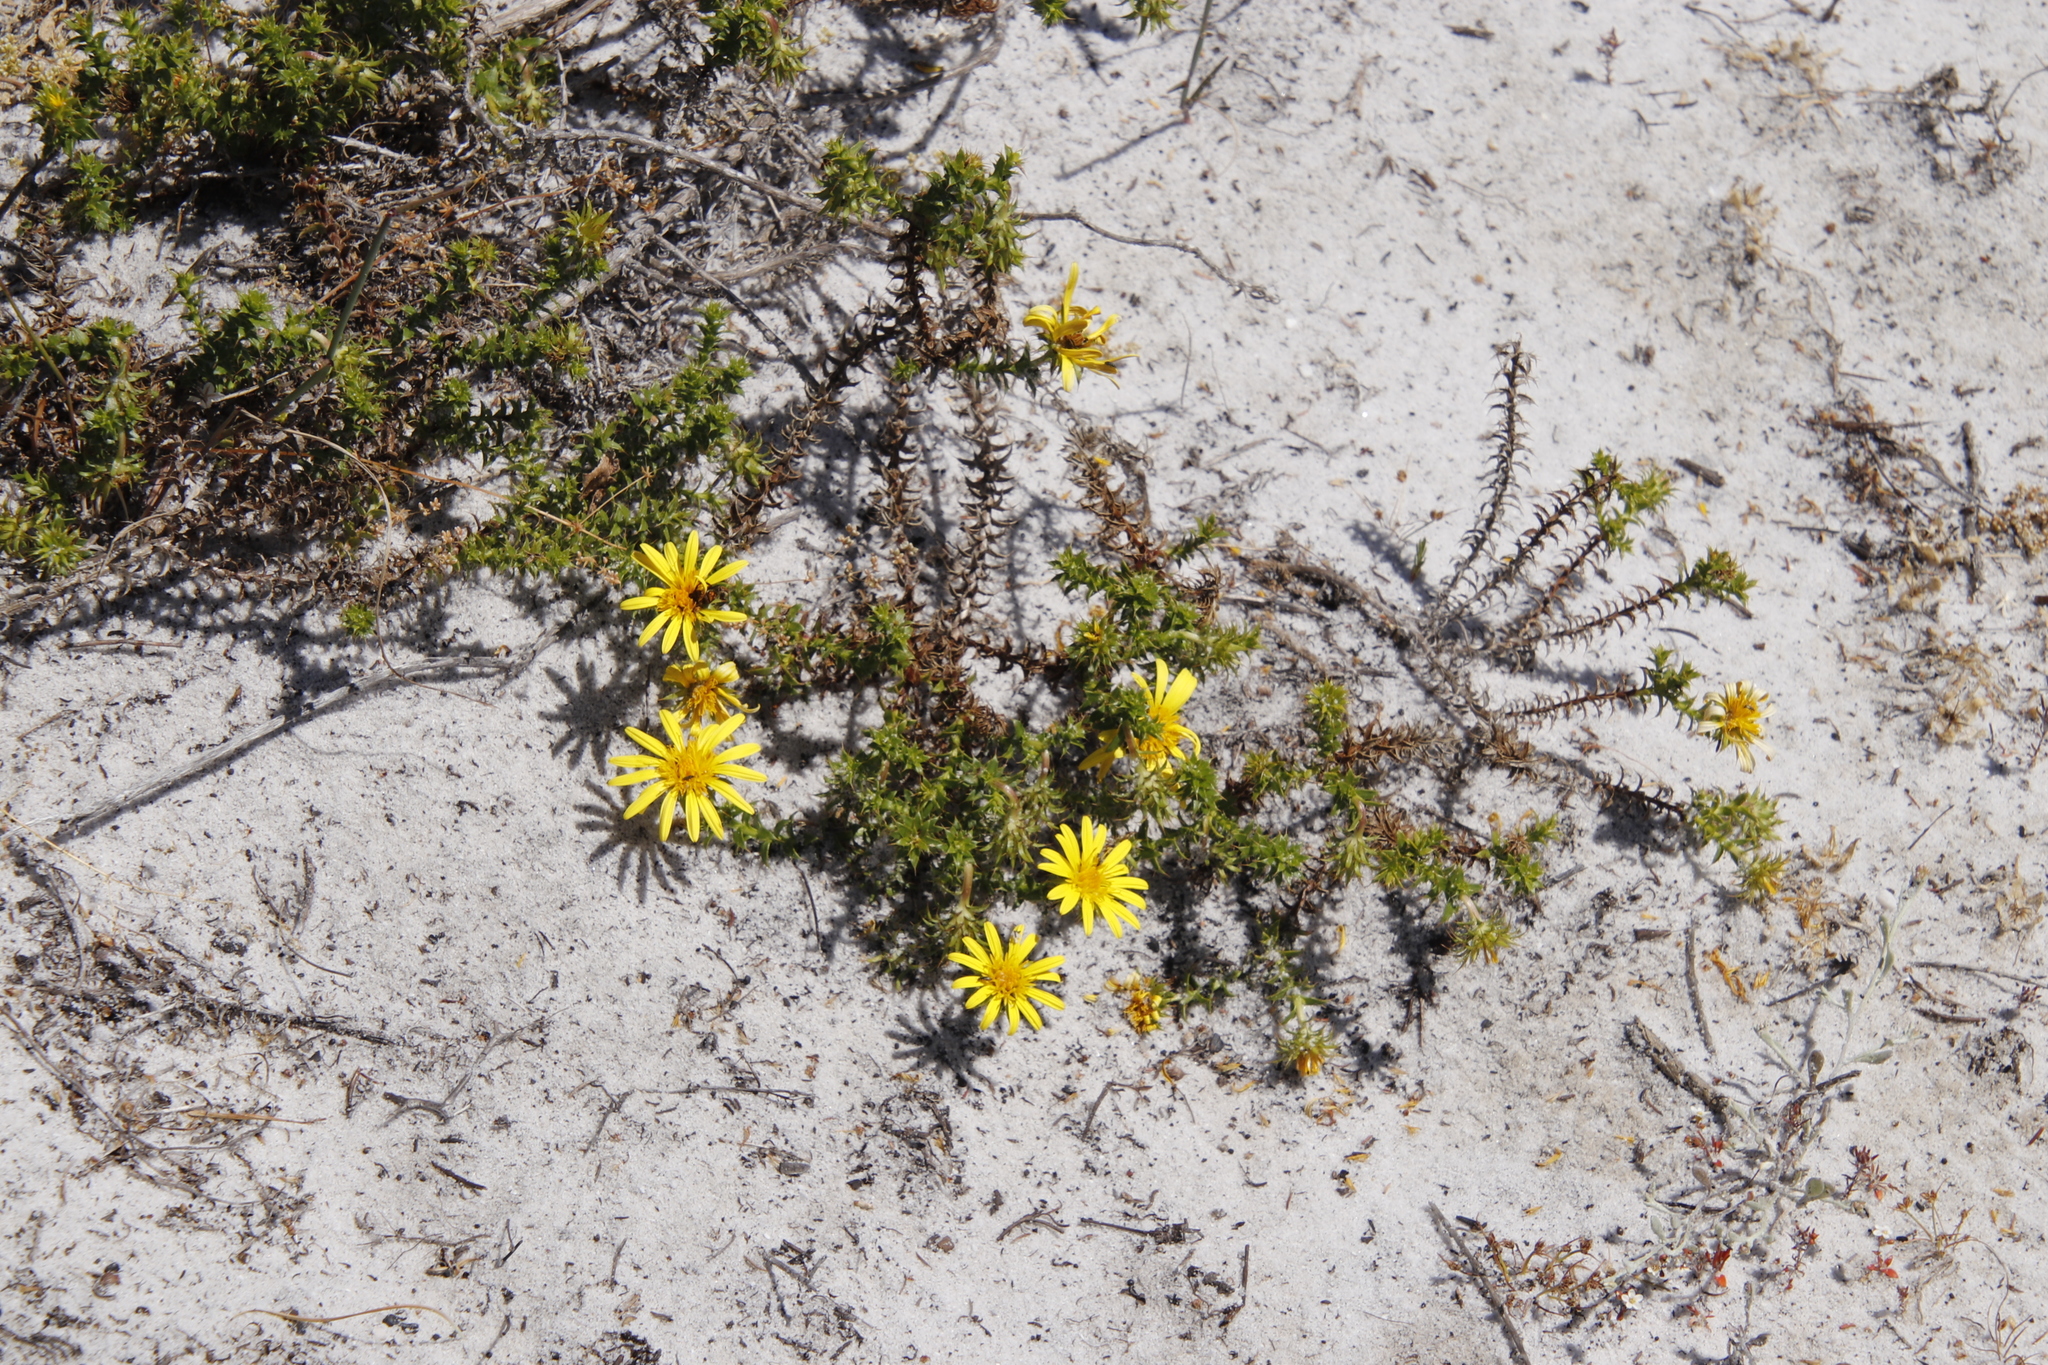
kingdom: Plantae
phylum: Tracheophyta
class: Magnoliopsida
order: Asterales
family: Asteraceae
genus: Cullumia
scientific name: Cullumia setosa
